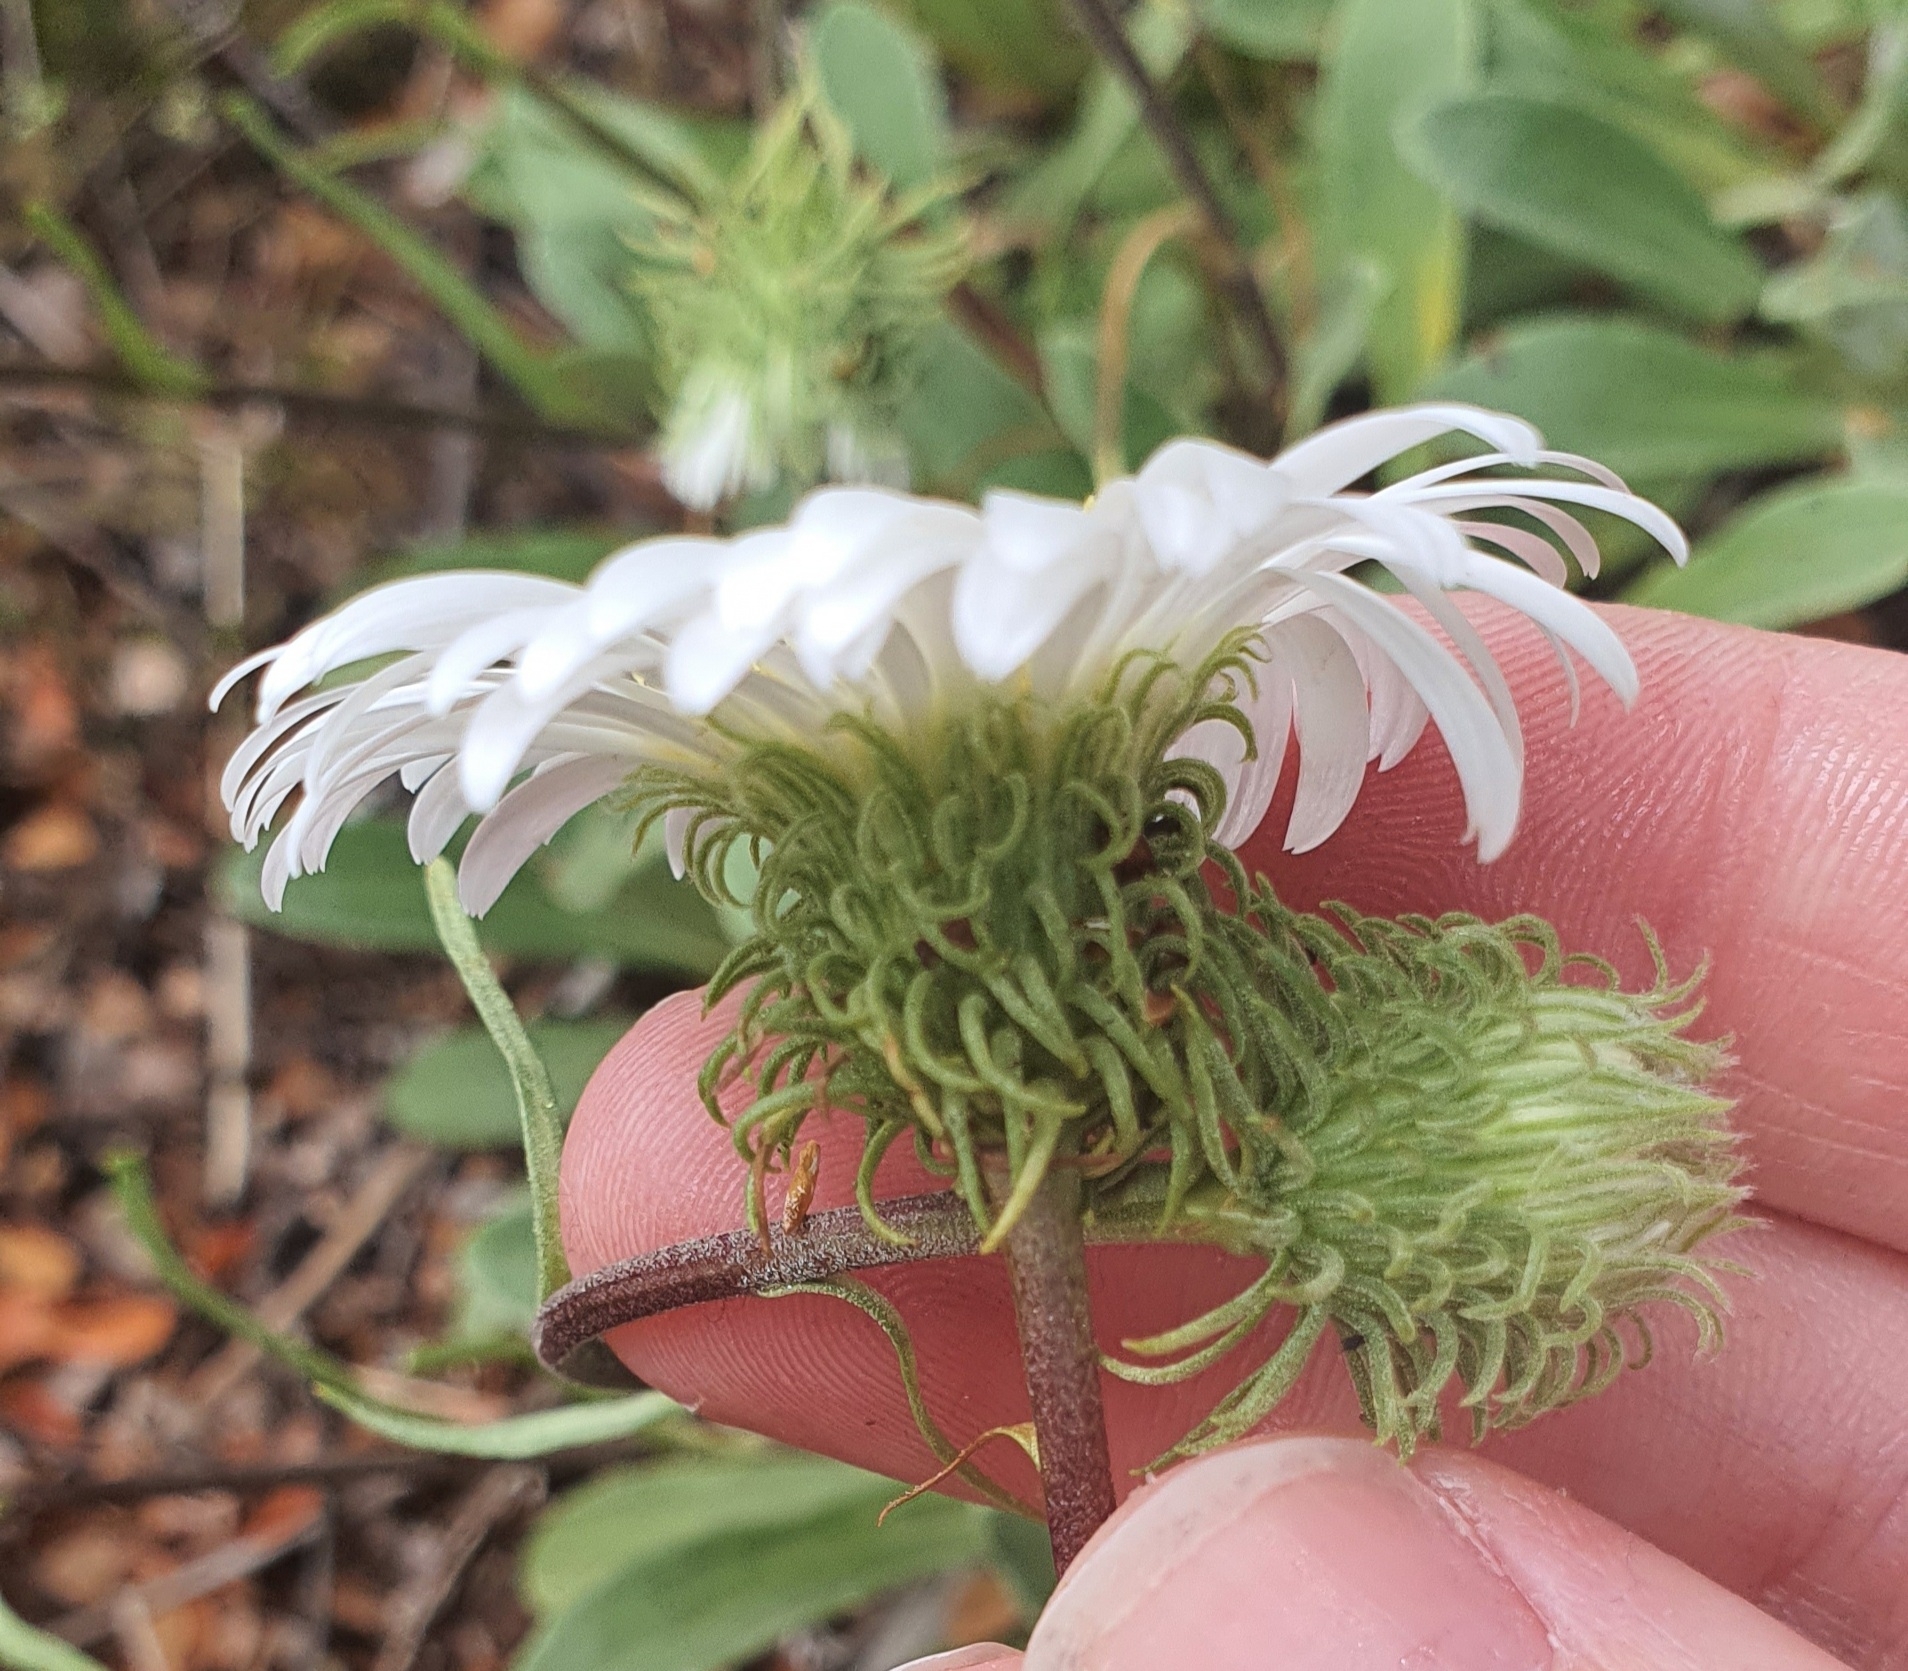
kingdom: Plantae
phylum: Tracheophyta
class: Magnoliopsida
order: Asterales
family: Asteraceae
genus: Celmisia
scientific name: Celmisia durietzii
